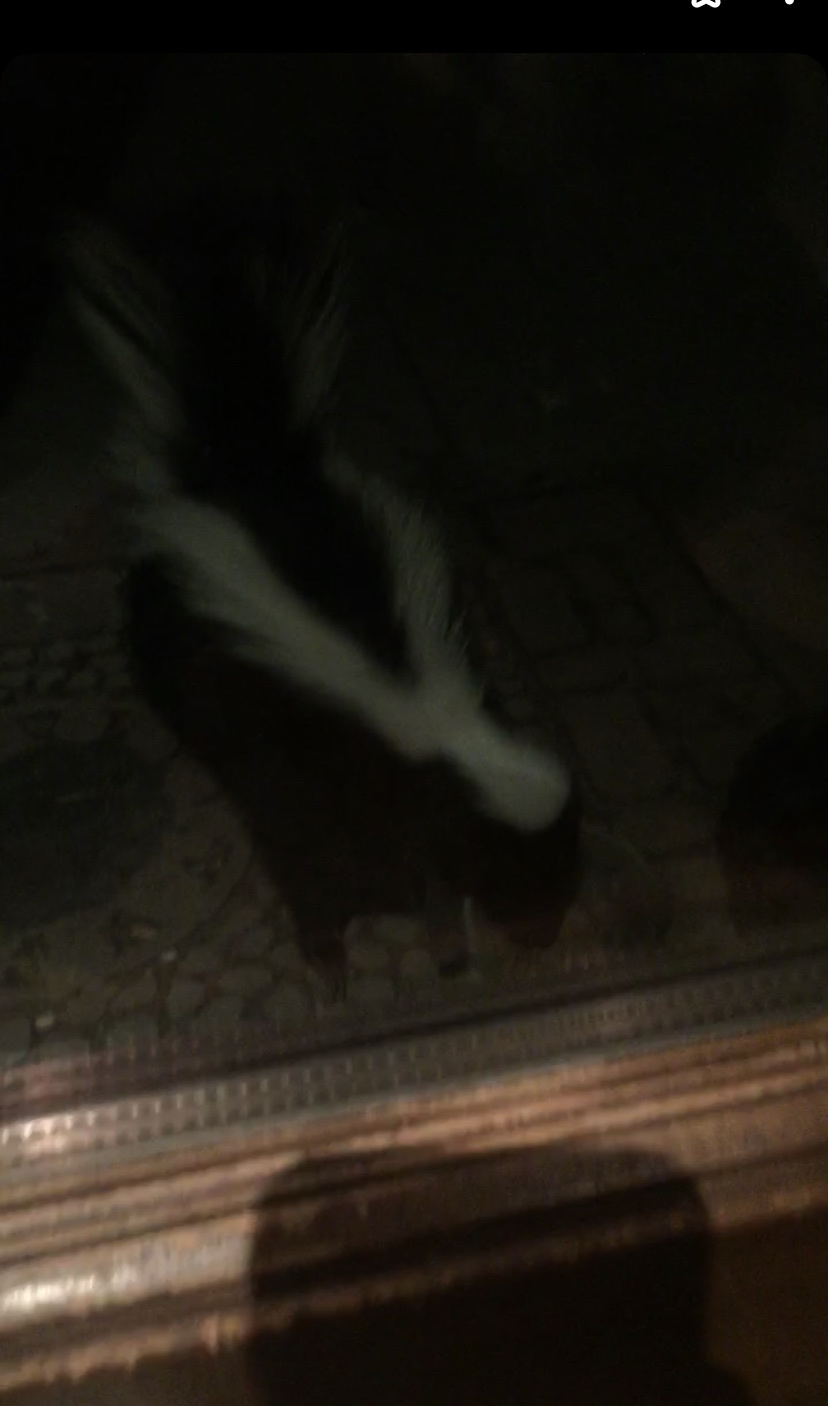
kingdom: Animalia
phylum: Chordata
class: Mammalia
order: Carnivora
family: Mephitidae
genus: Mephitis
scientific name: Mephitis mephitis
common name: Striped skunk
